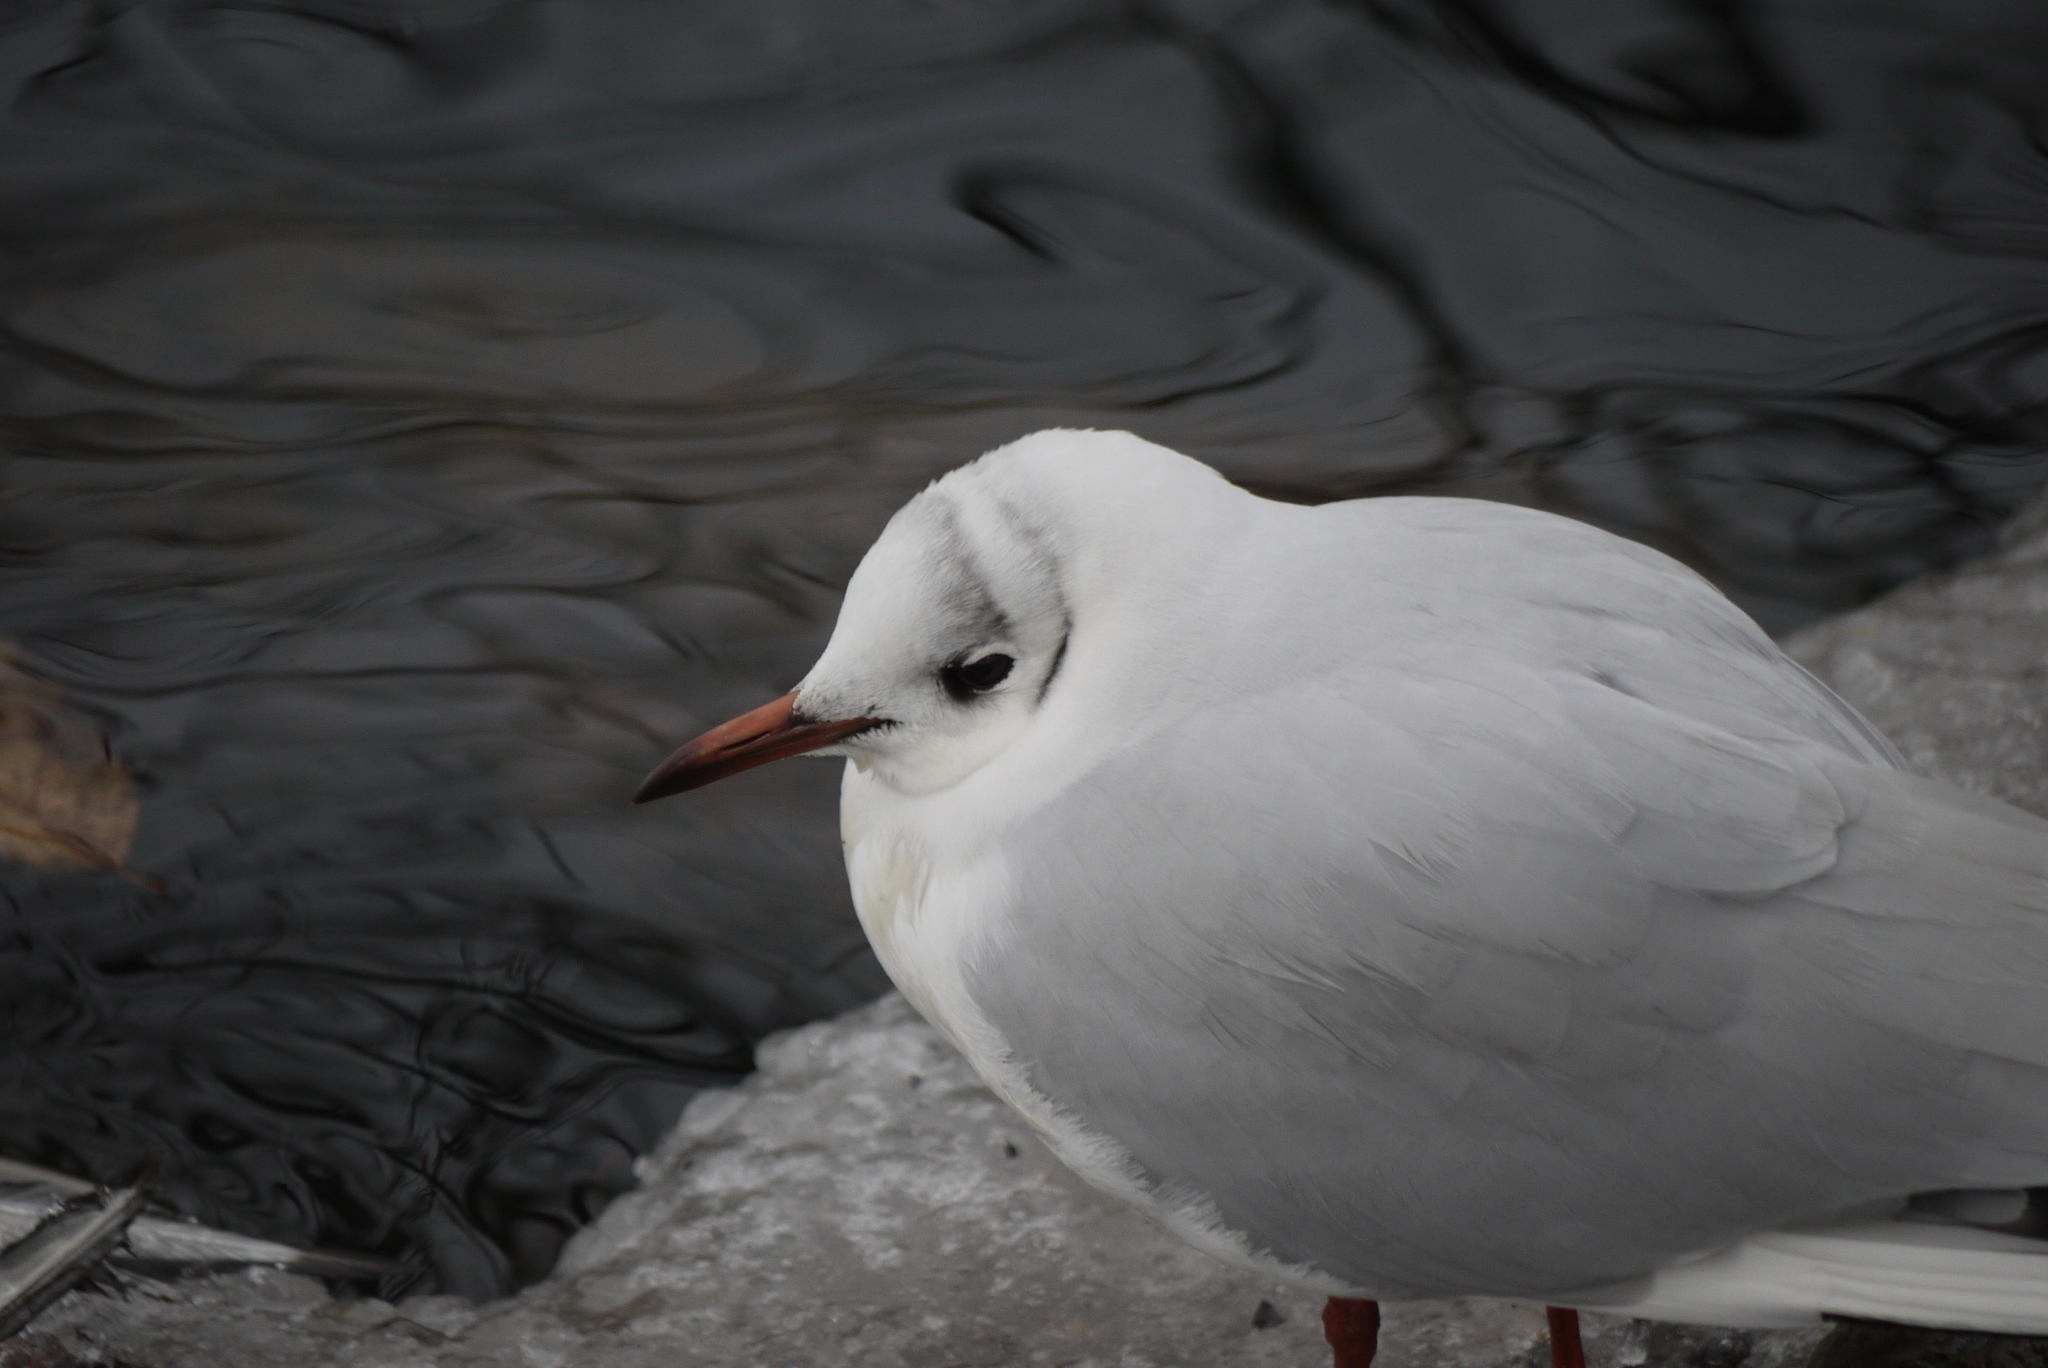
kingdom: Animalia
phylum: Chordata
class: Aves
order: Charadriiformes
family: Laridae
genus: Chroicocephalus
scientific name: Chroicocephalus ridibundus
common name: Black-headed gull
